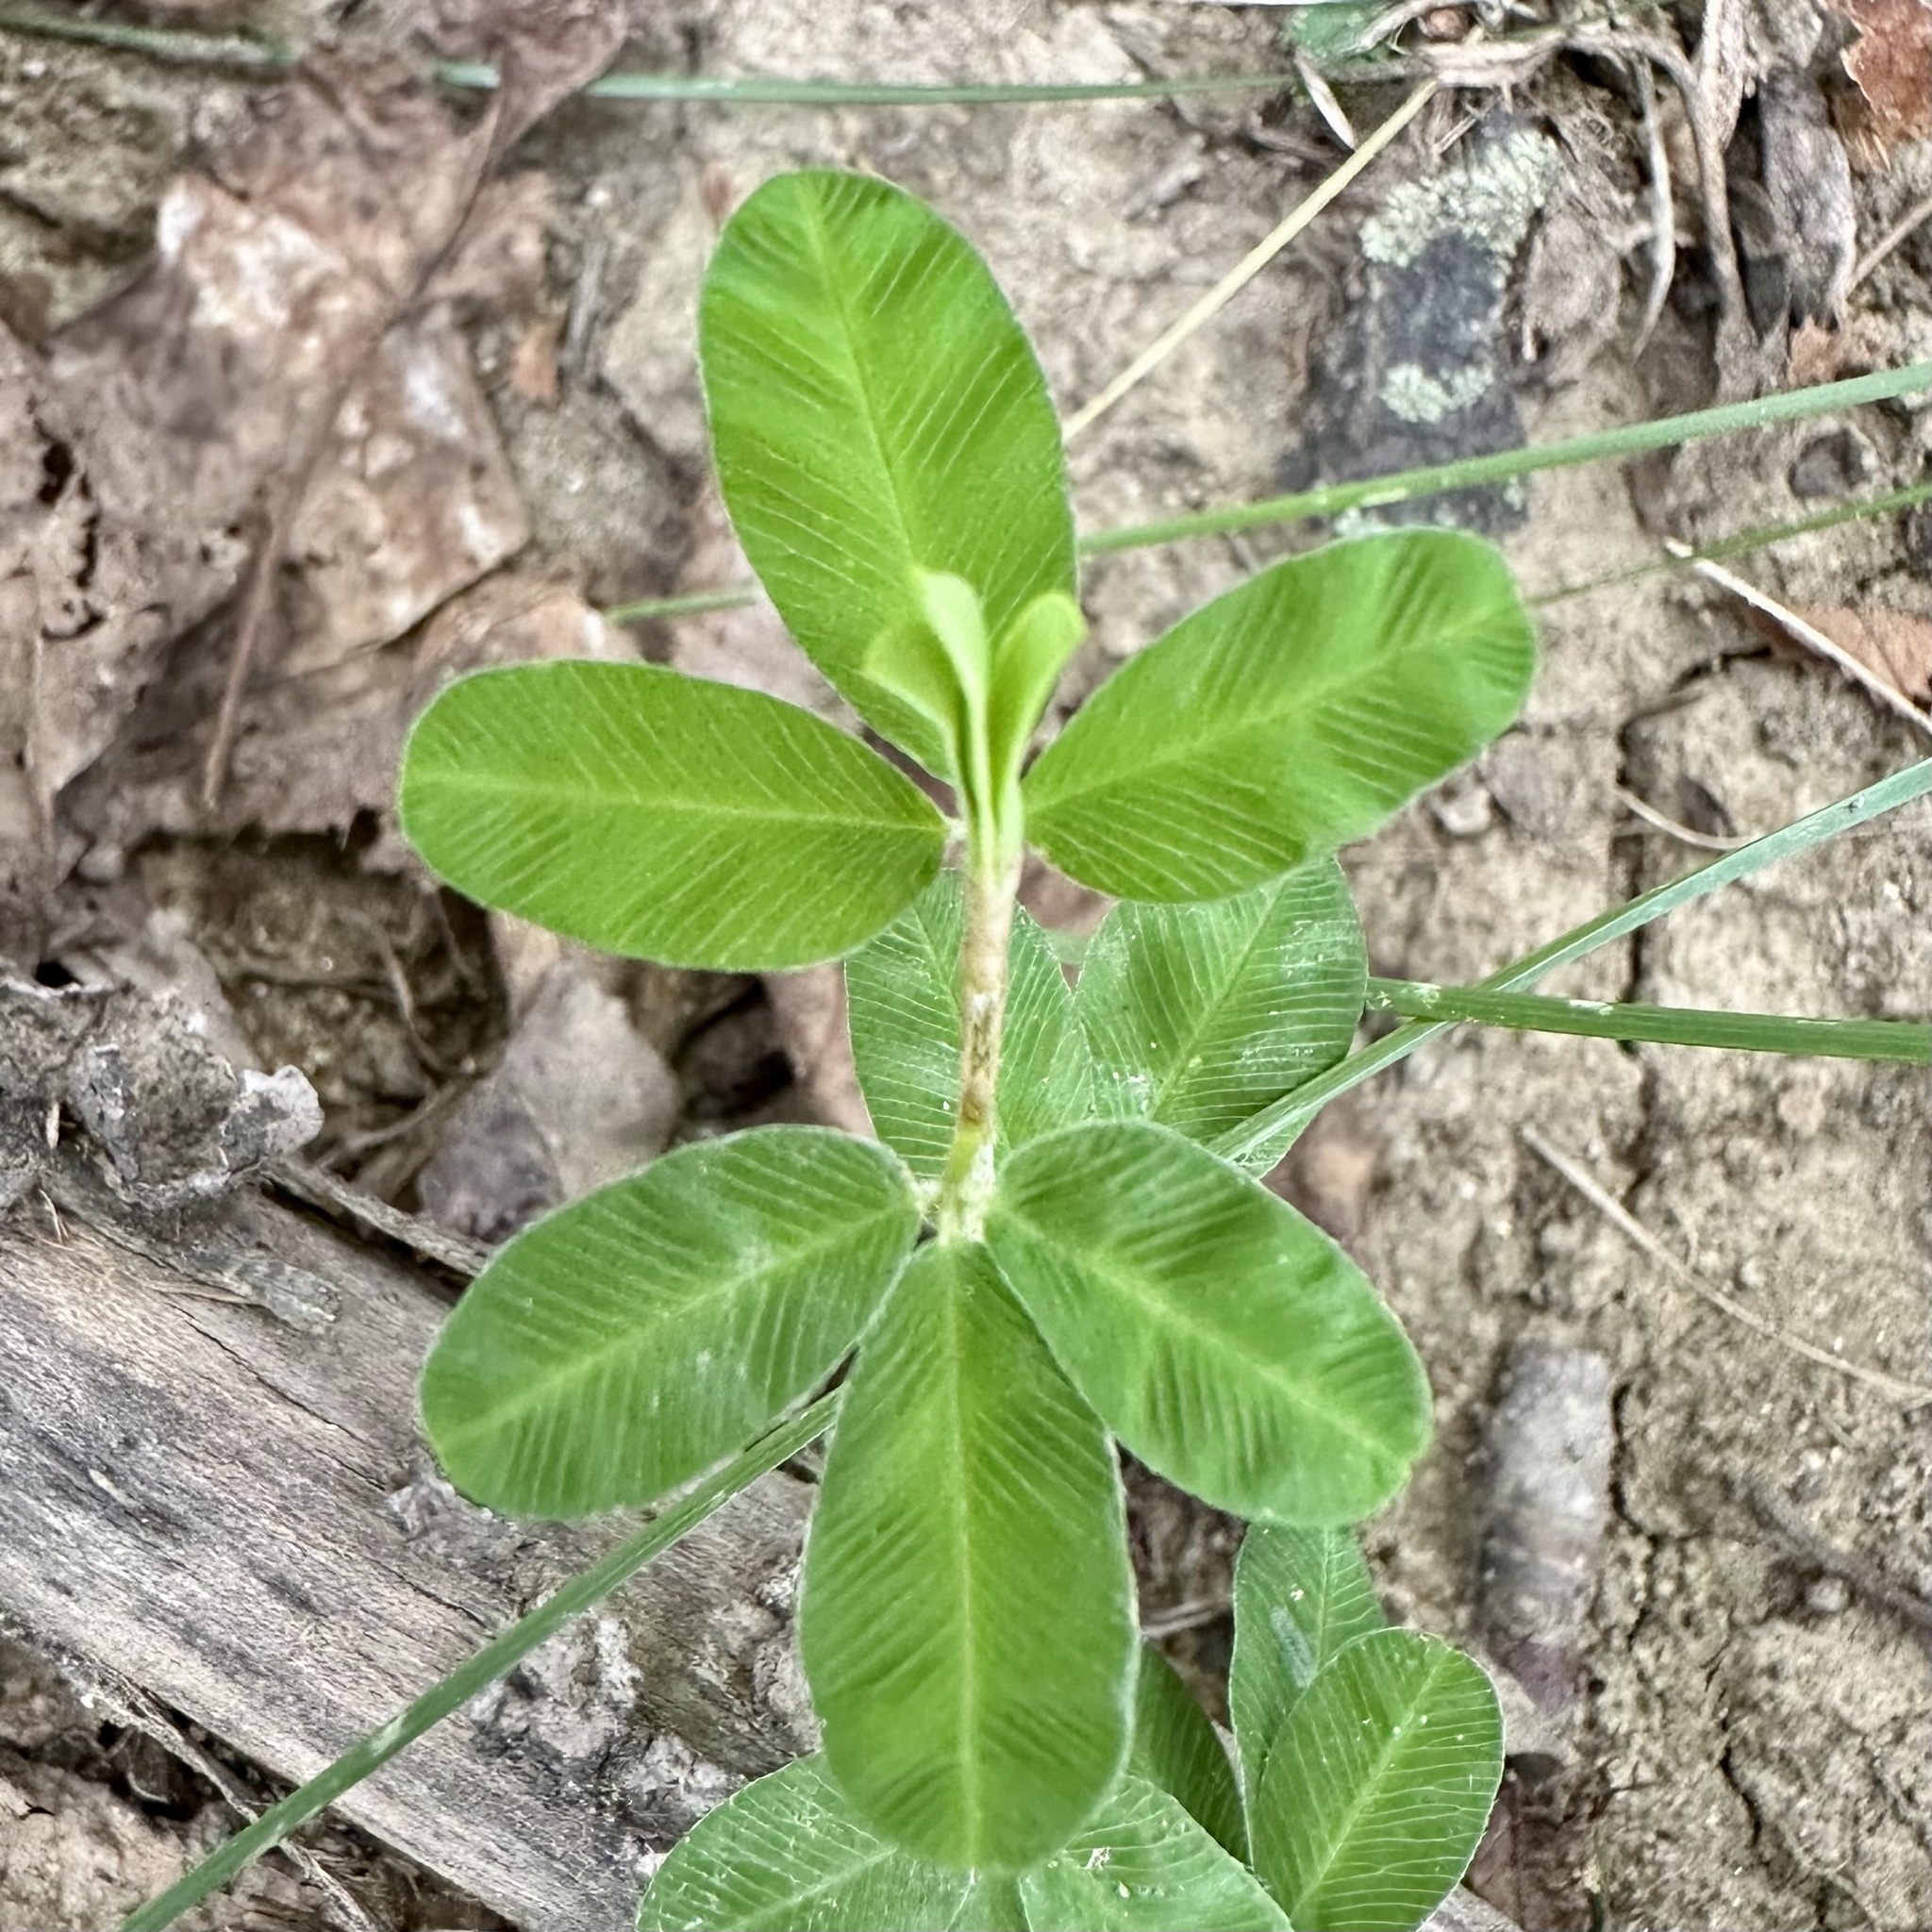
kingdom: Plantae
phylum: Tracheophyta
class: Magnoliopsida
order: Fabales
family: Fabaceae
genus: Kummerowia
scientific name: Kummerowia striata
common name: Japanese clover
